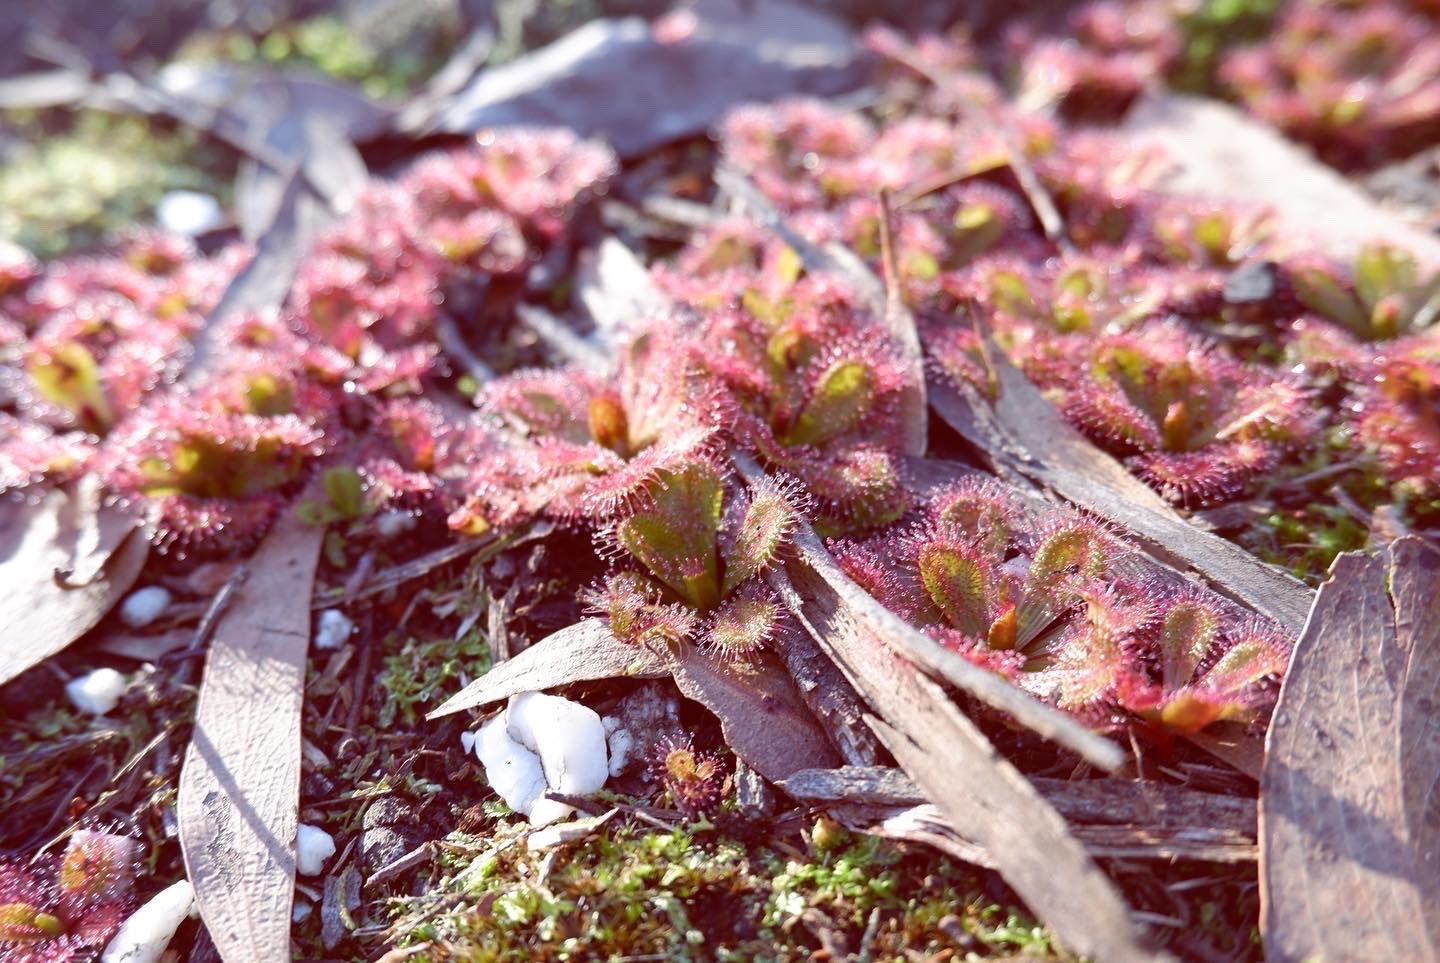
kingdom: Plantae
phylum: Tracheophyta
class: Magnoliopsida
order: Caryophyllales
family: Droseraceae
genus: Drosera
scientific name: Drosera aberrans
